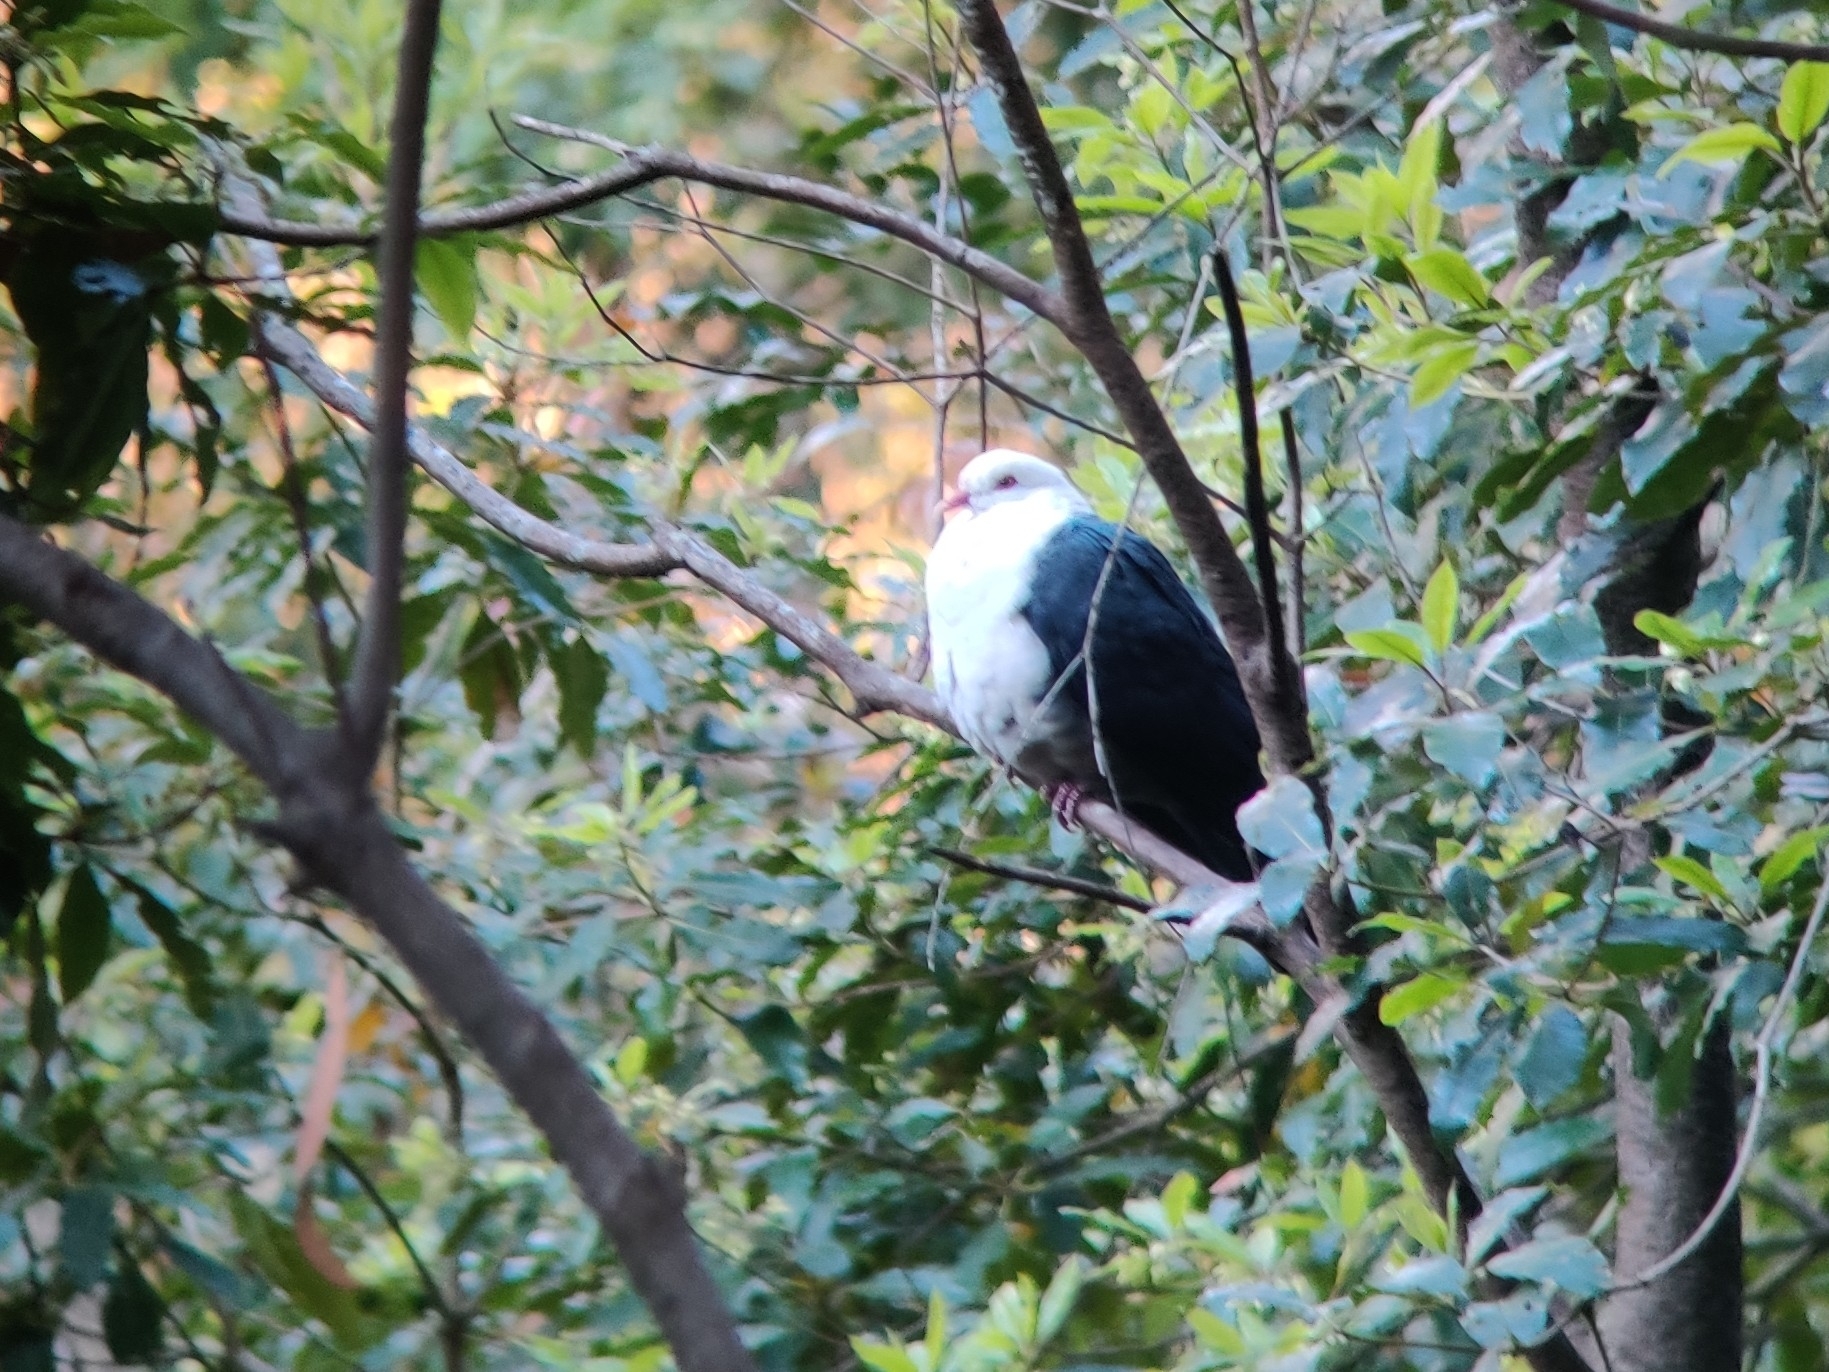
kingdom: Animalia
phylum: Chordata
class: Aves
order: Columbiformes
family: Columbidae
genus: Columba
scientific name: Columba leucomela
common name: White-headed pigeon
